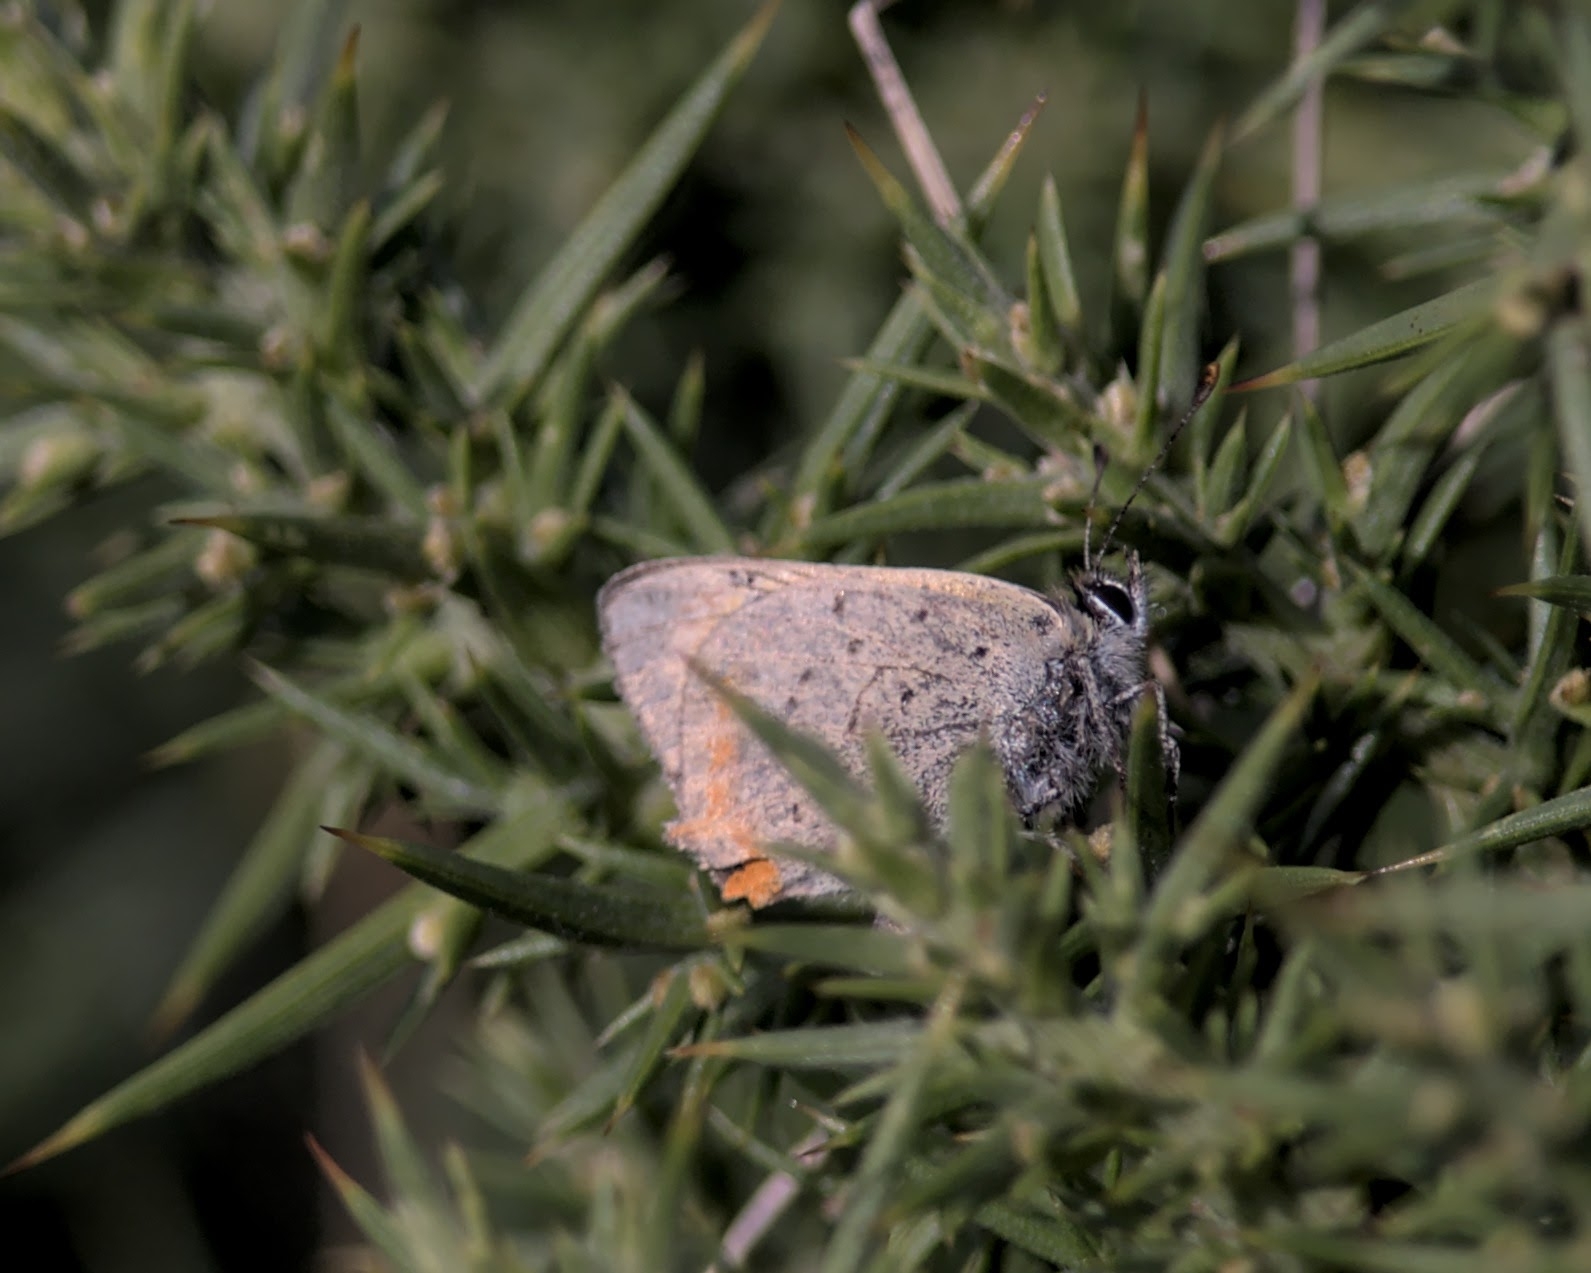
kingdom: Animalia
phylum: Arthropoda
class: Insecta
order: Lepidoptera
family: Lycaenidae
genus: Lycaena
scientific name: Lycaena phlaeas
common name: Small copper
